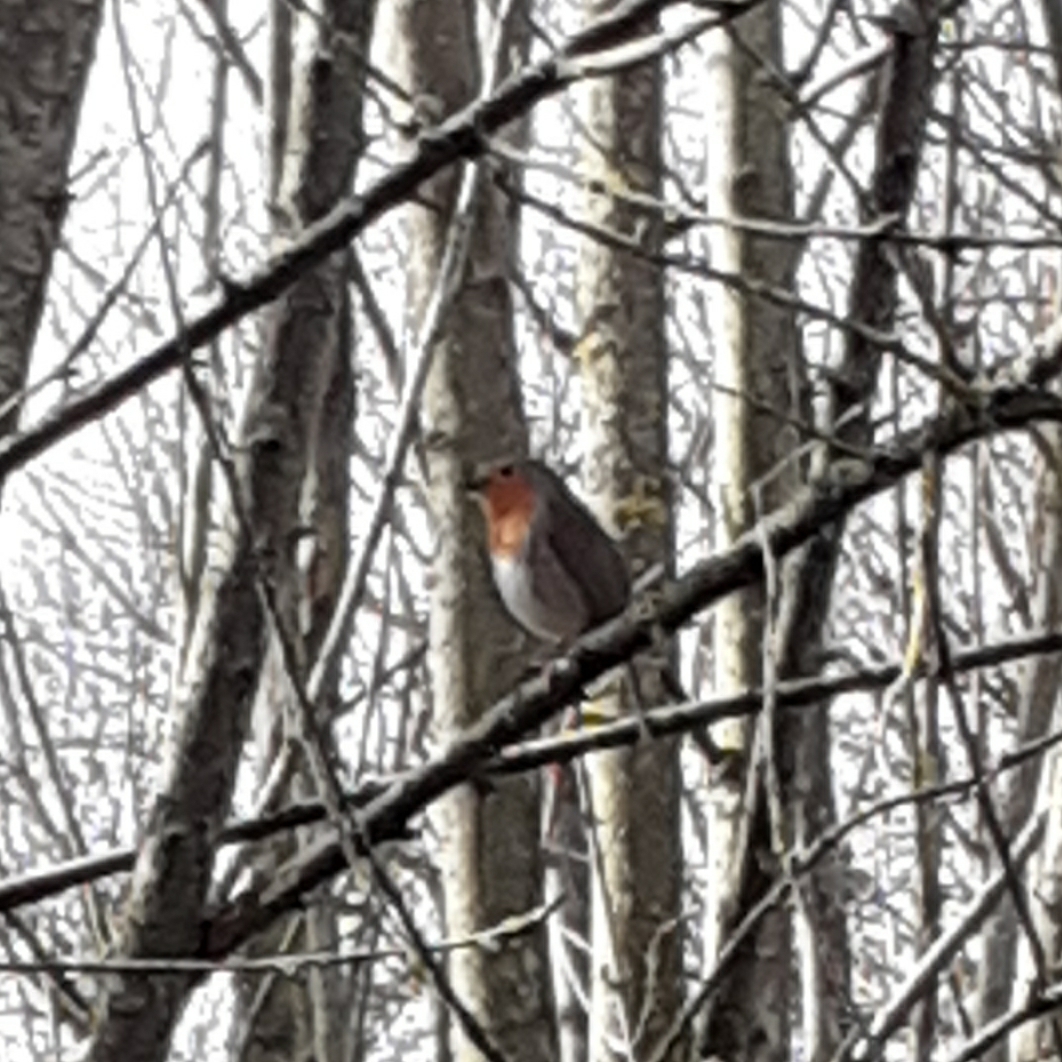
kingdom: Animalia
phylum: Chordata
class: Aves
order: Passeriformes
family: Muscicapidae
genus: Erithacus
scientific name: Erithacus rubecula
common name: European robin
